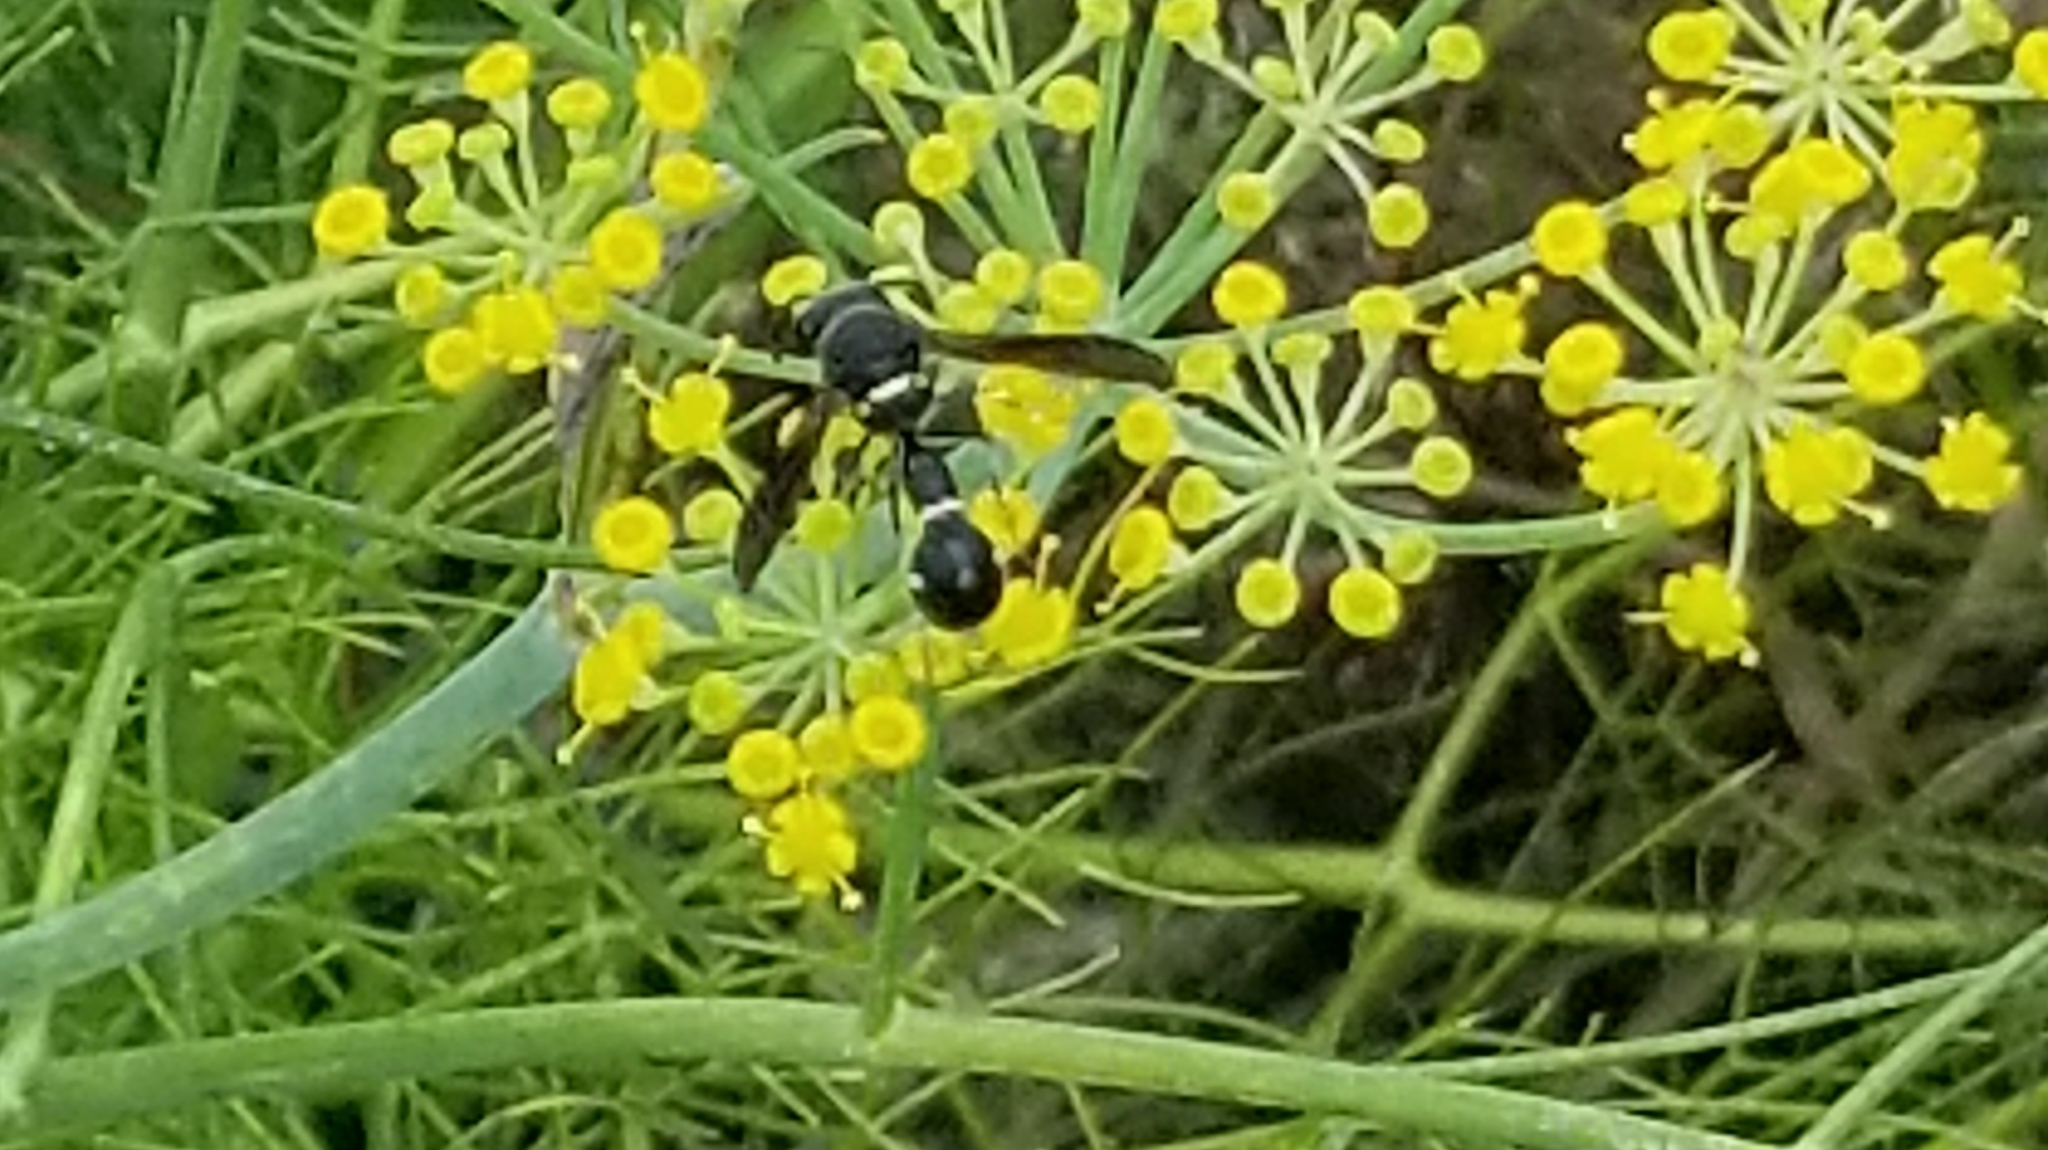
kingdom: Animalia
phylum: Arthropoda
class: Insecta
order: Hymenoptera
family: Vespidae
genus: Eumenes
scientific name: Eumenes fraternus
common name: Fraternal potter wasp
